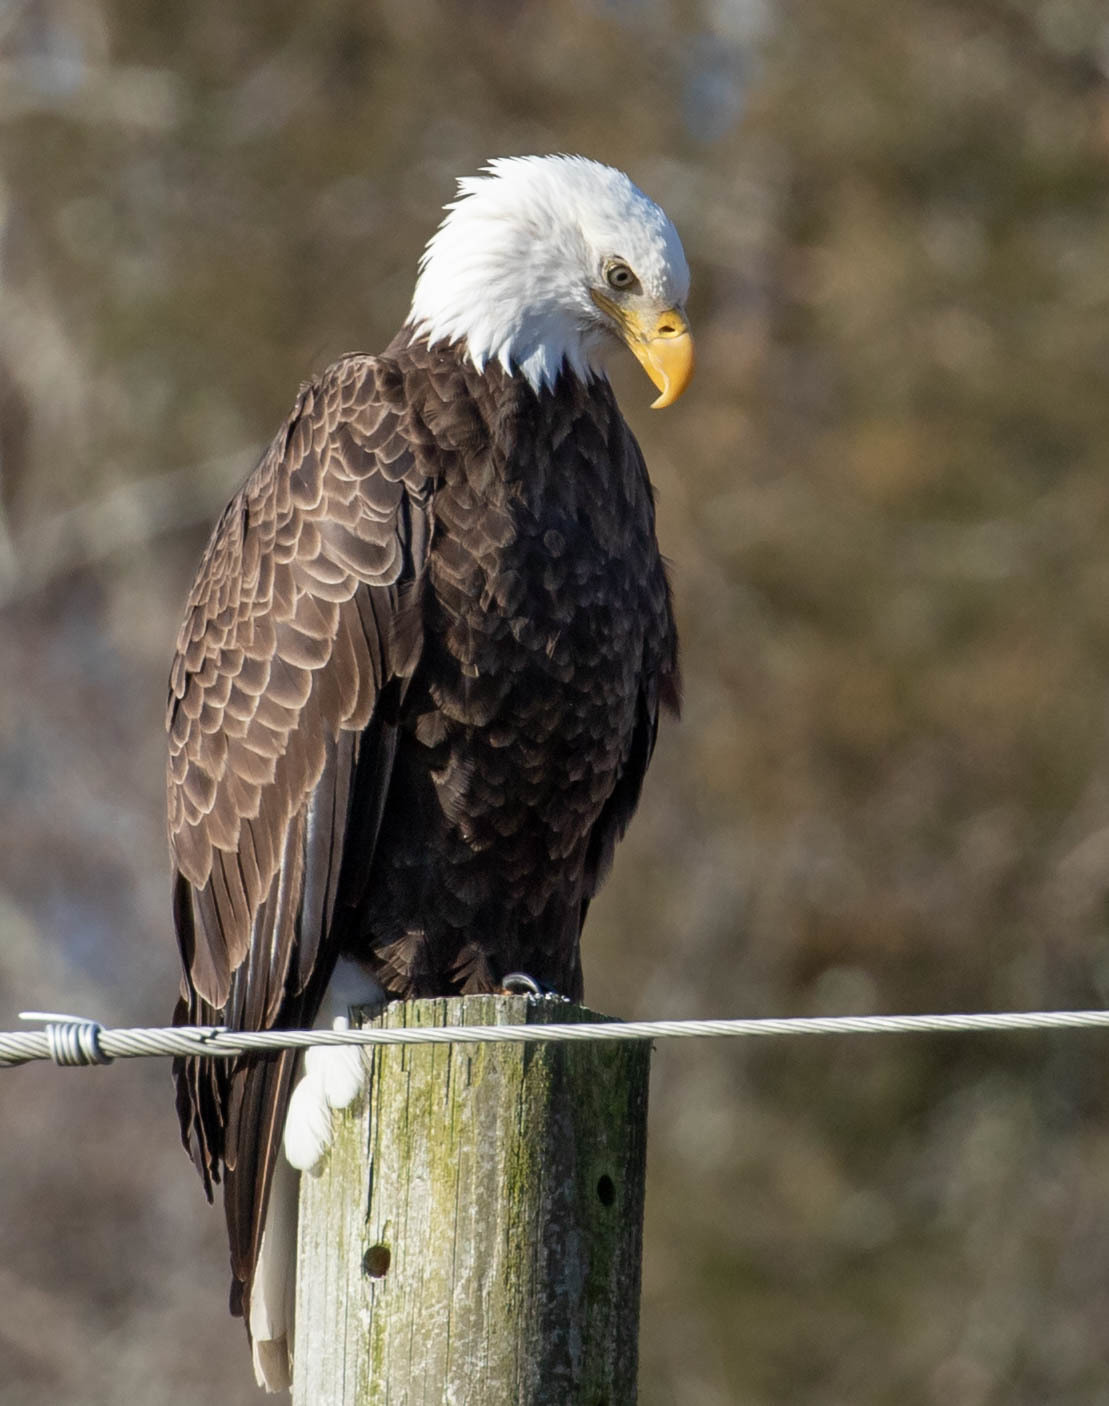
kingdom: Animalia
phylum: Chordata
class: Aves
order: Accipitriformes
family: Accipitridae
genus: Haliaeetus
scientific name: Haliaeetus leucocephalus
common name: Bald eagle
